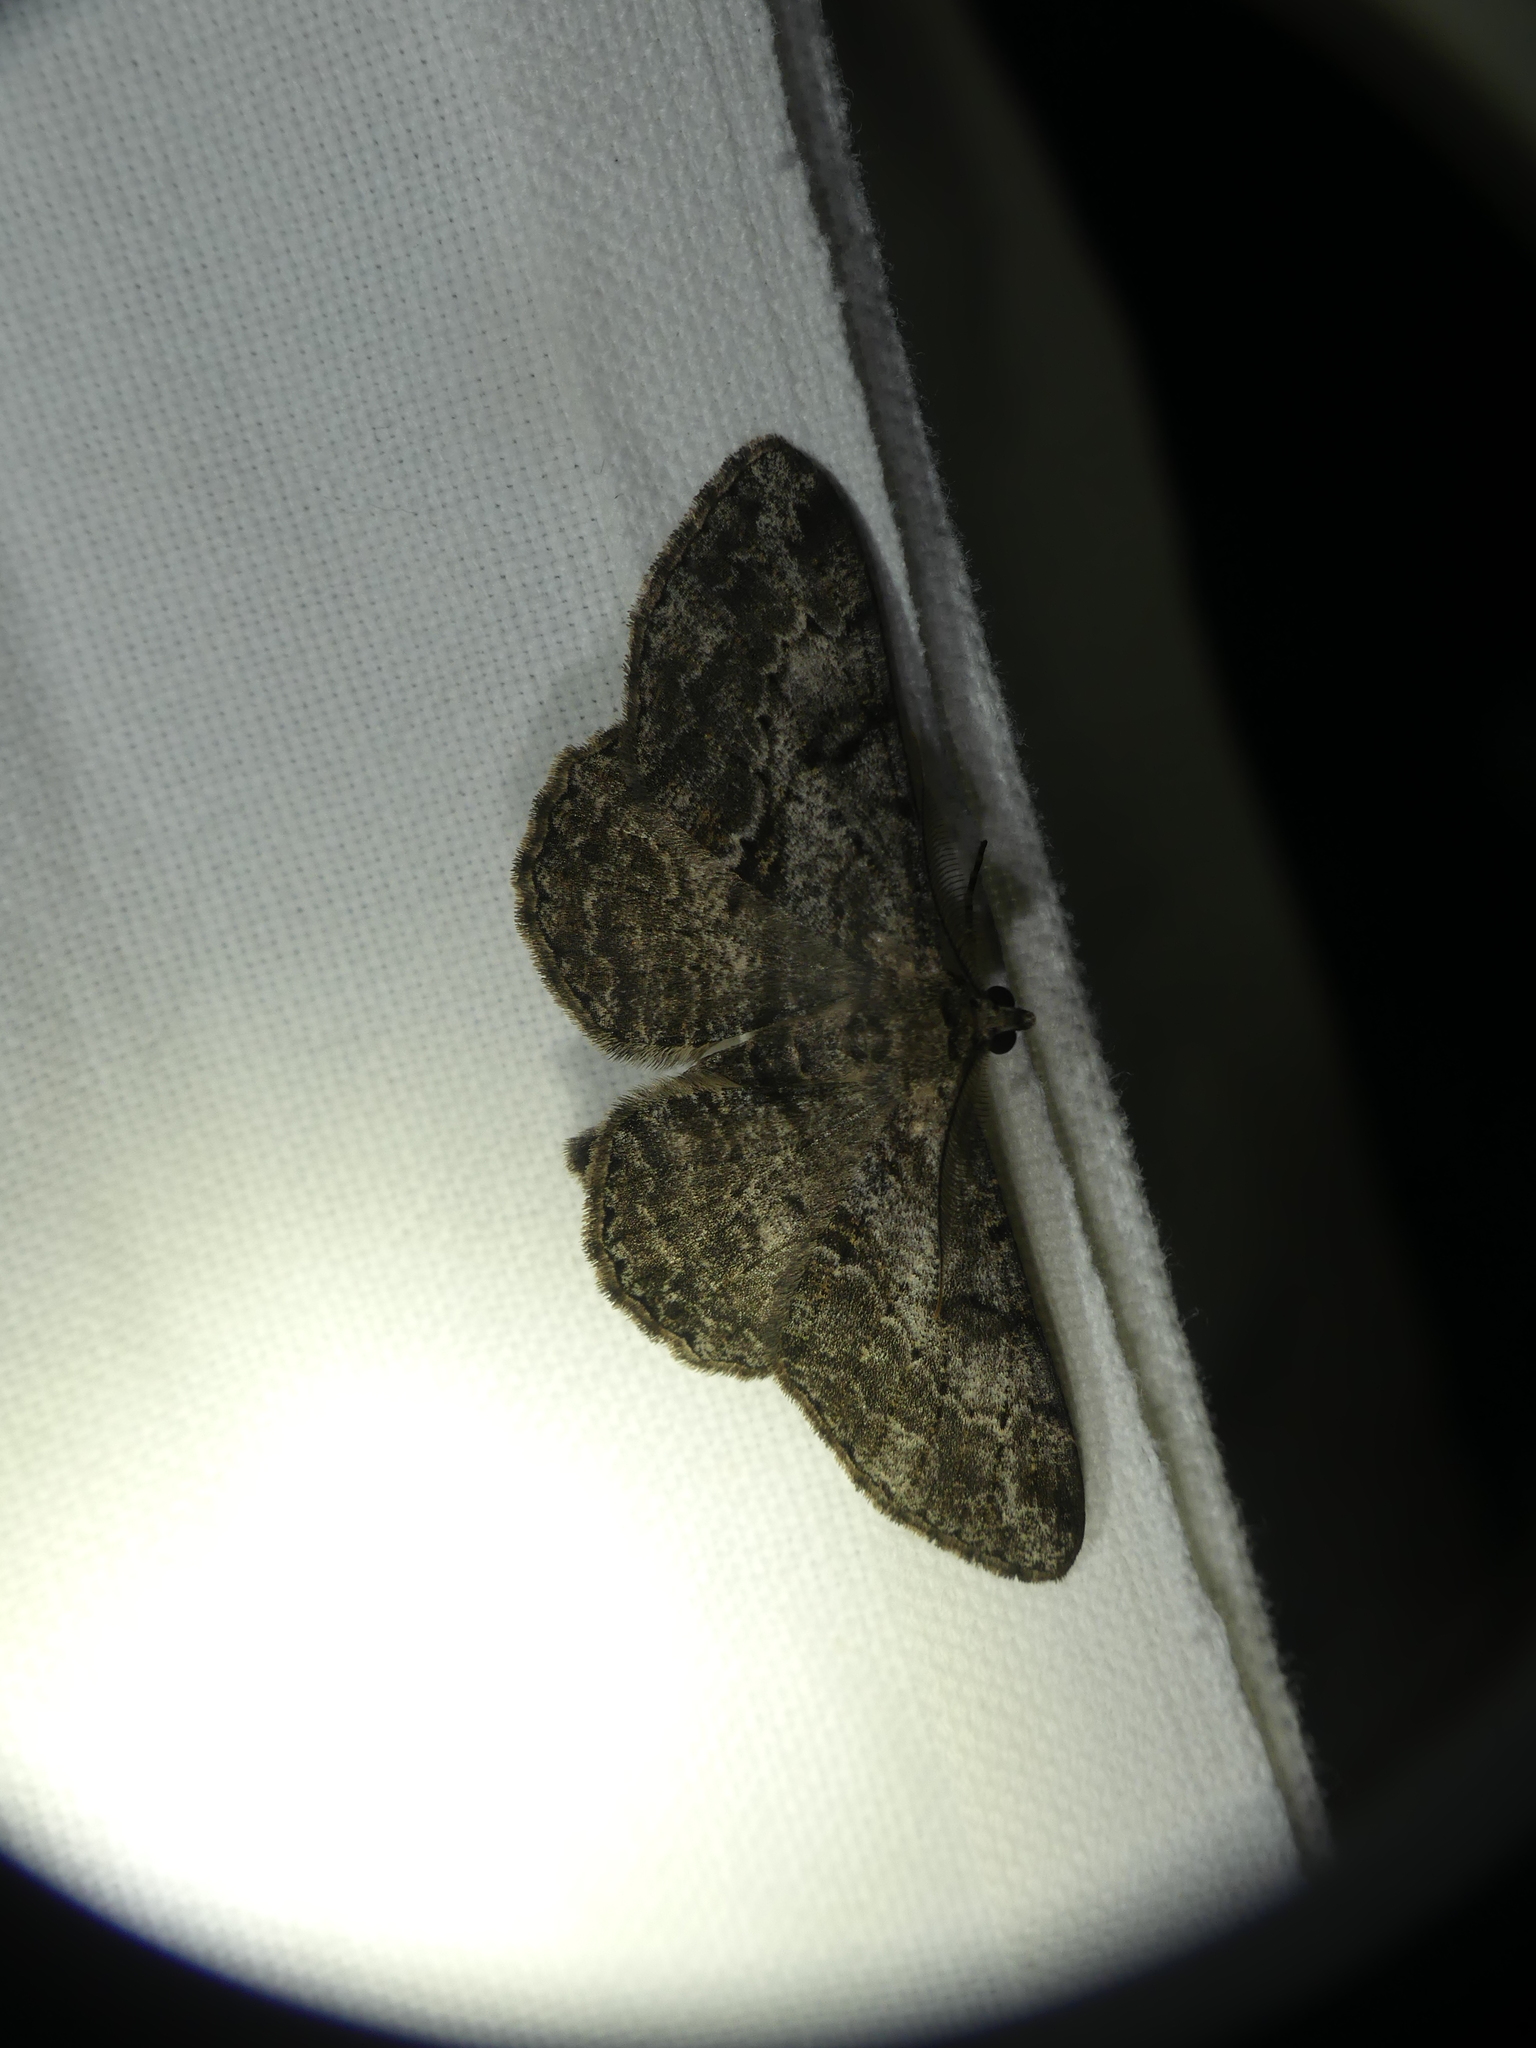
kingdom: Animalia
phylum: Arthropoda
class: Insecta
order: Lepidoptera
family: Geometridae
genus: Peribatodes
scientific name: Peribatodes rhomboidaria
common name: Willow beauty
